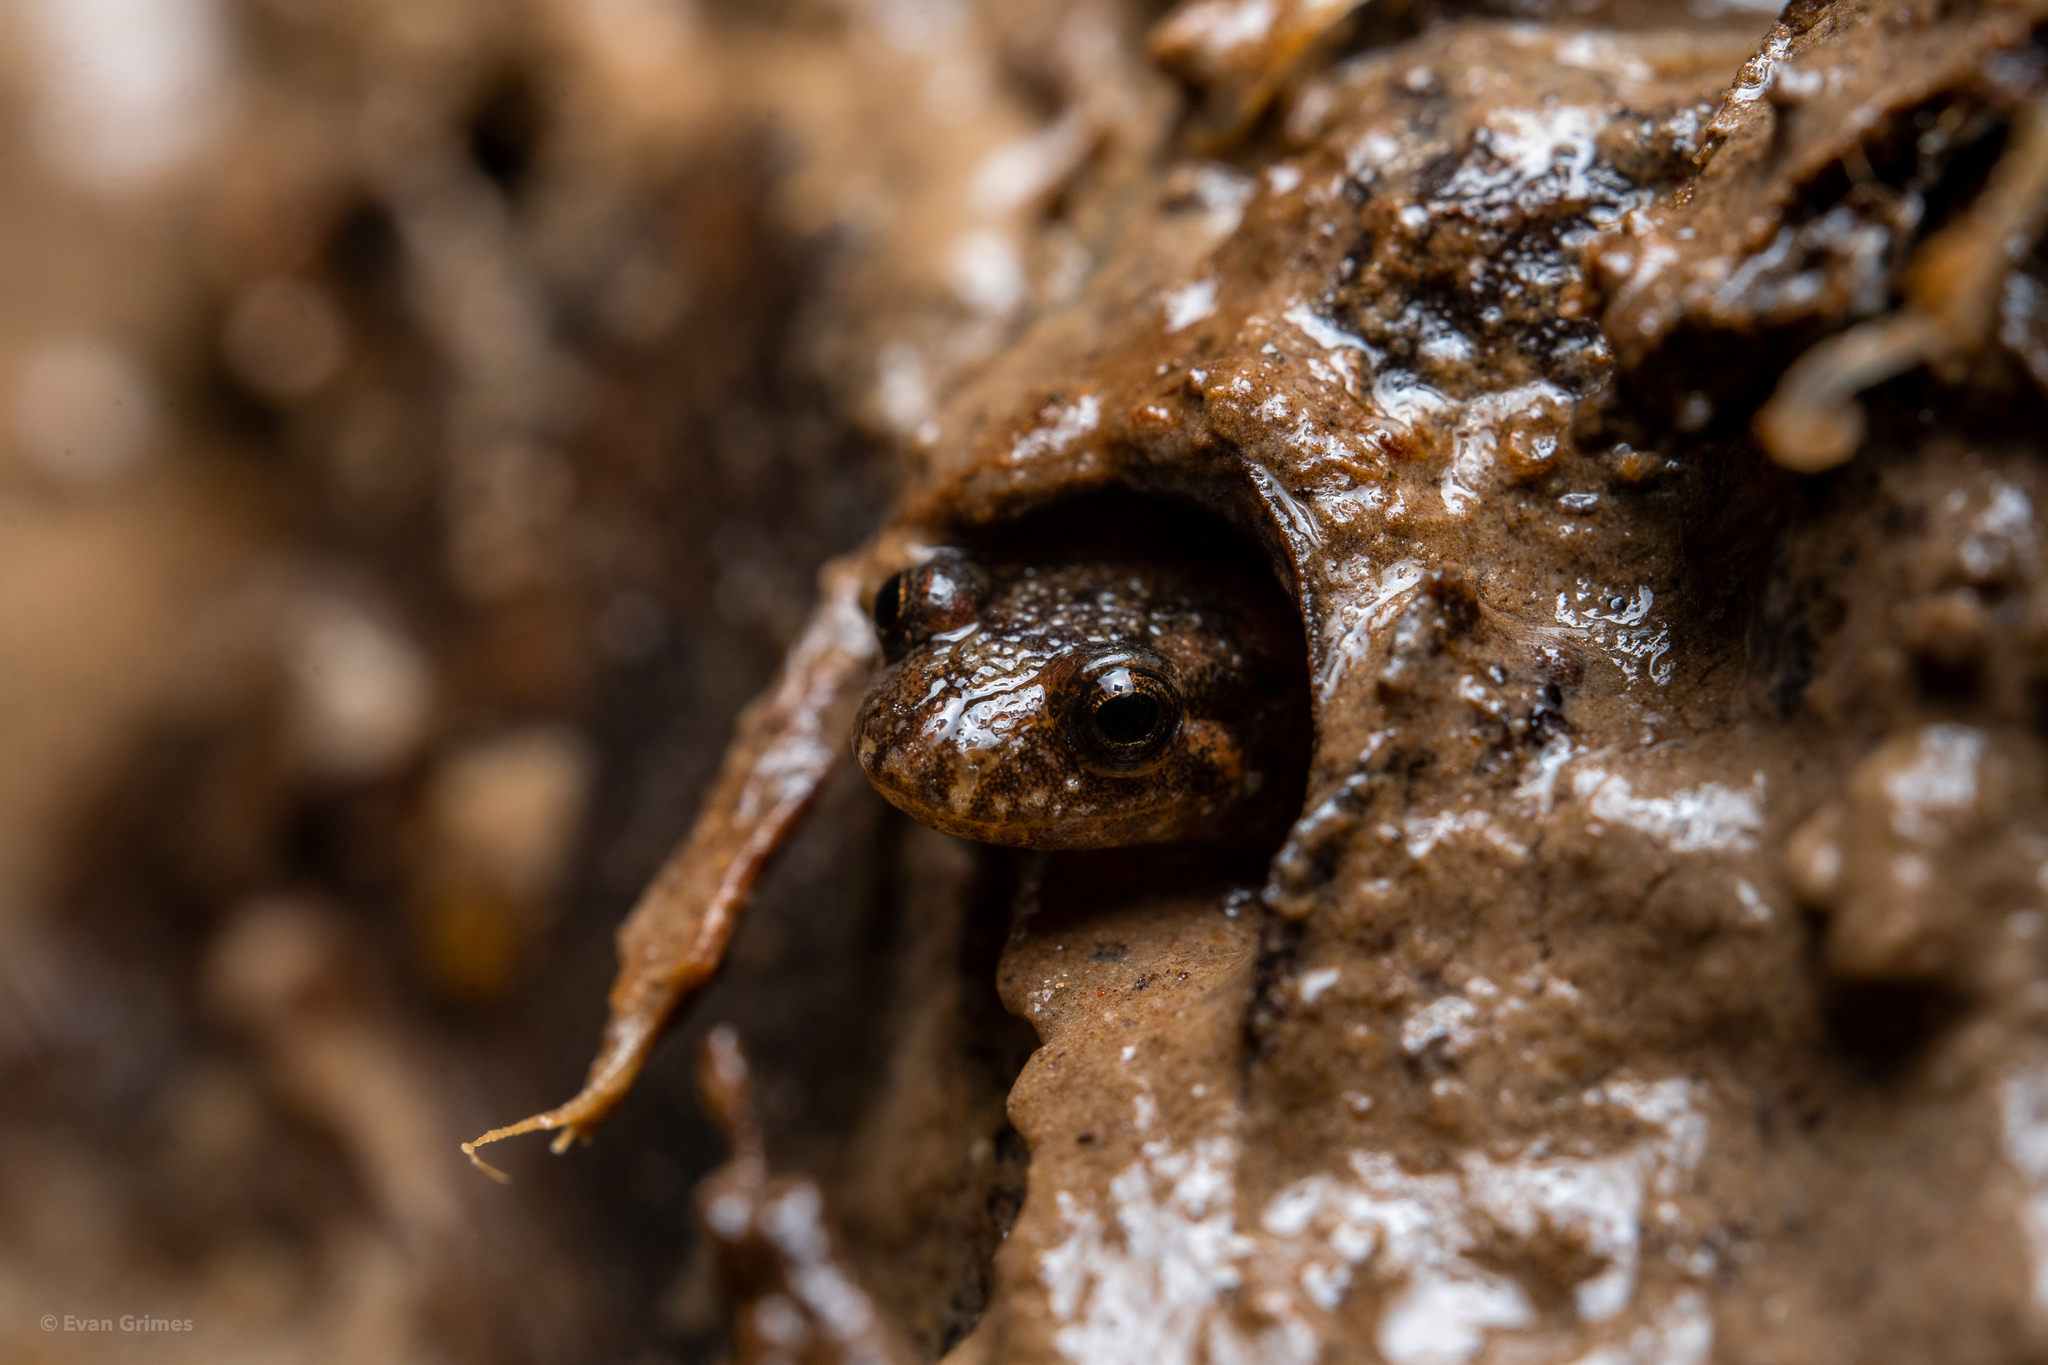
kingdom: Animalia
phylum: Chordata
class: Amphibia
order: Caudata
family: Plethodontidae
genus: Desmognathus
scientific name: Desmognathus conanti
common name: Spotted dusky salamander
